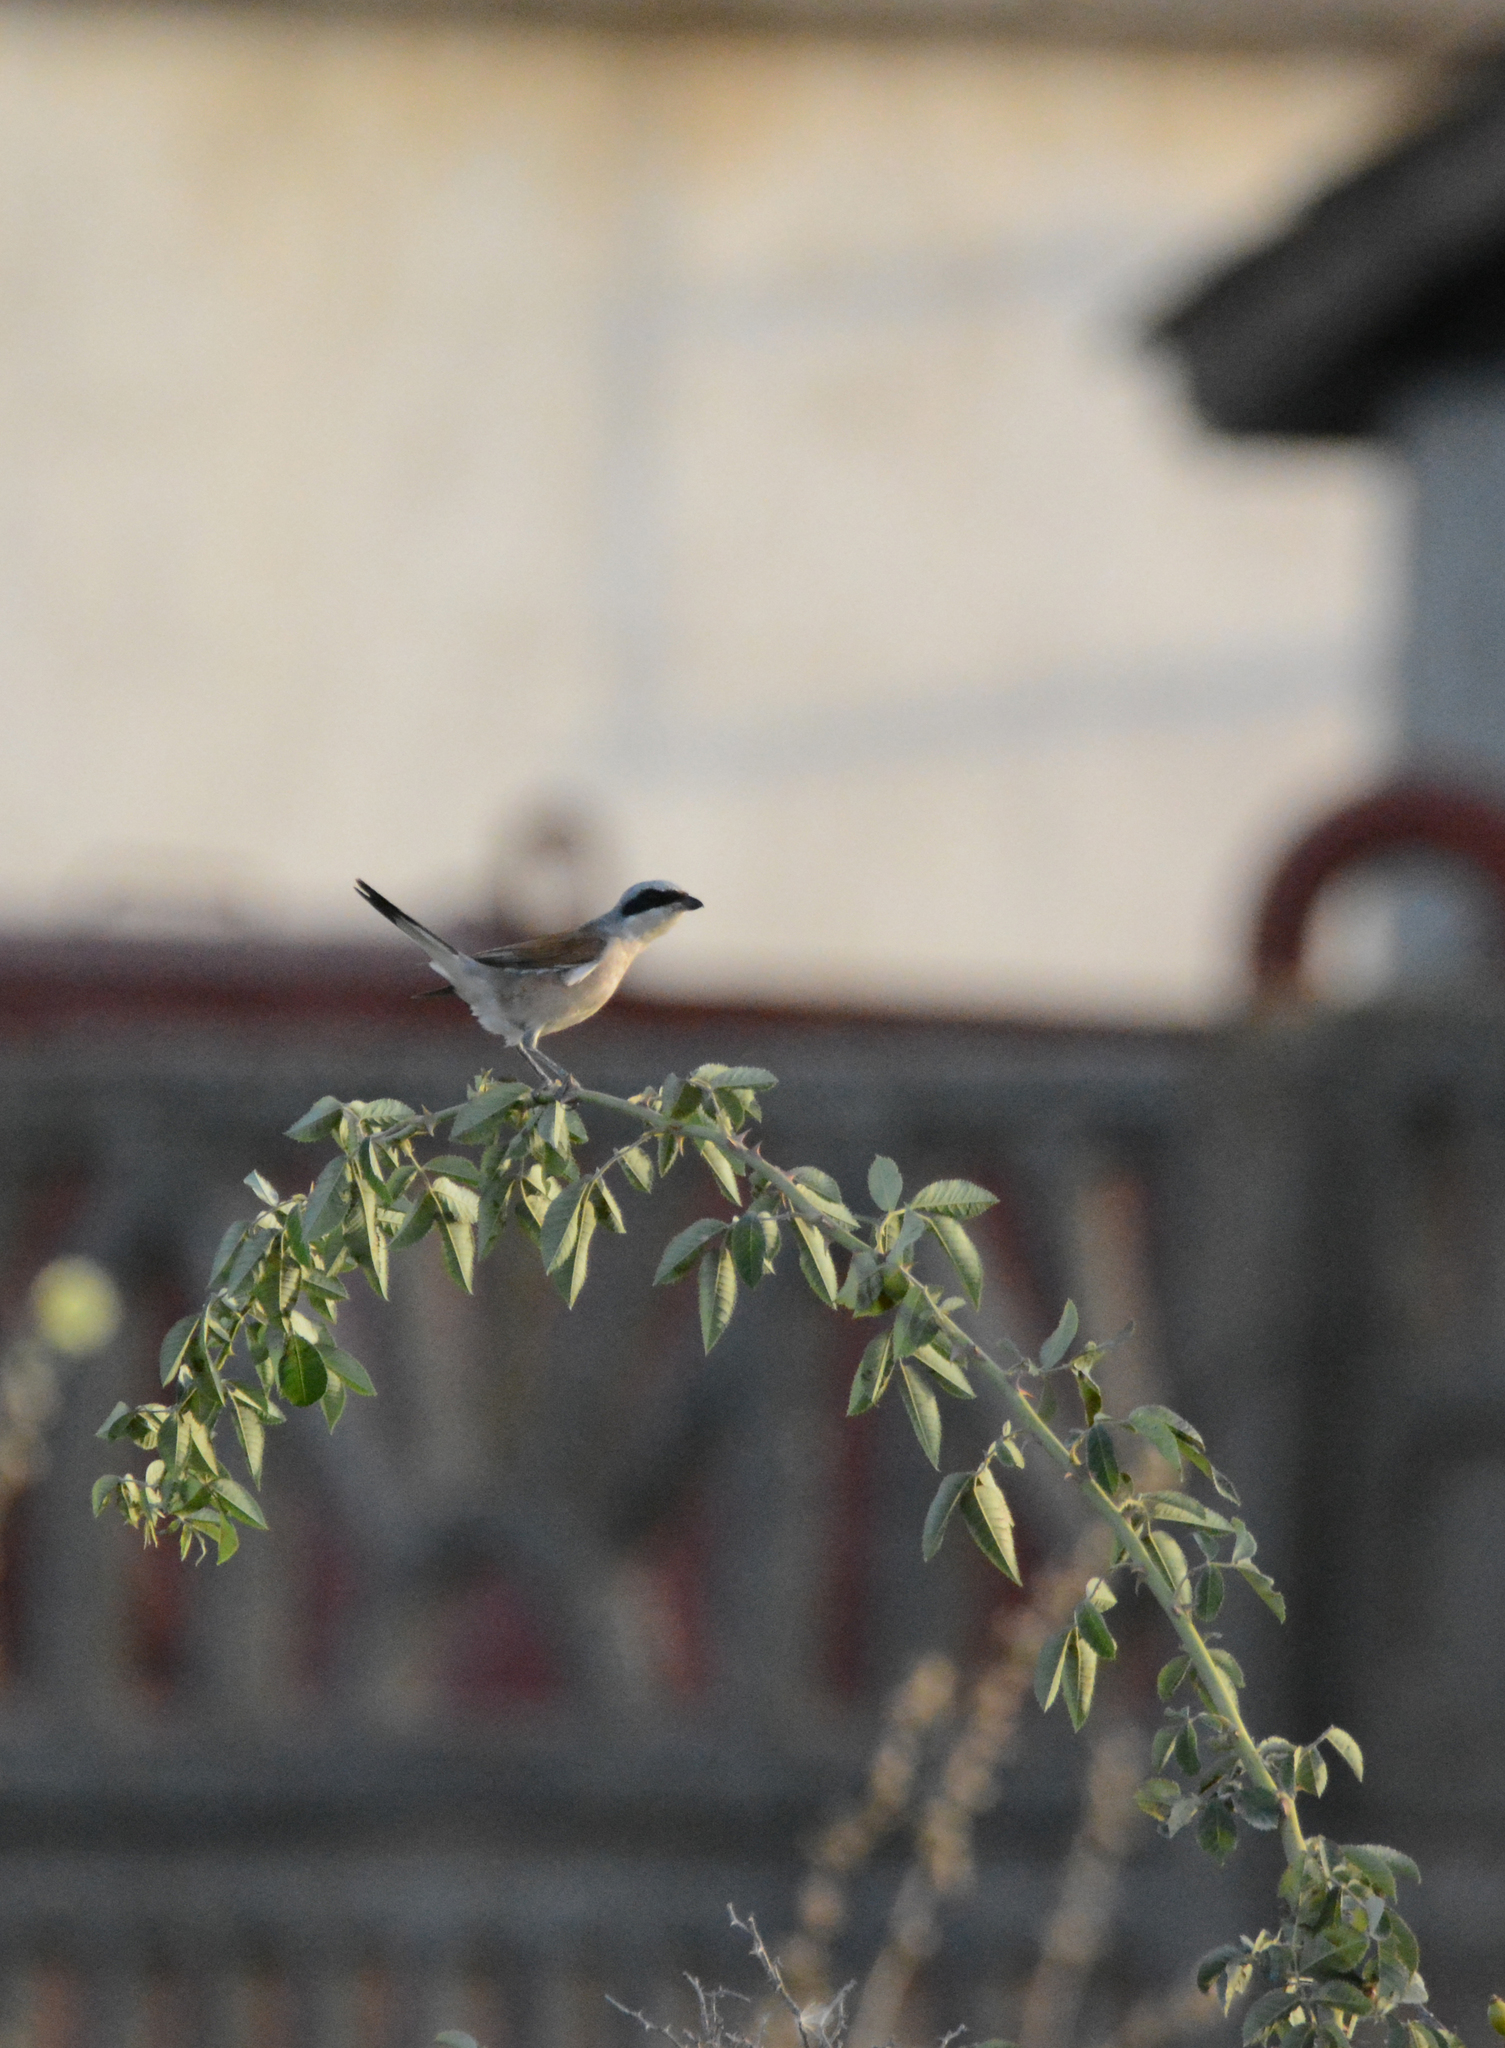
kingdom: Animalia
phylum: Chordata
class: Aves
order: Passeriformes
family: Laniidae
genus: Lanius
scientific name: Lanius collurio
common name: Red-backed shrike
